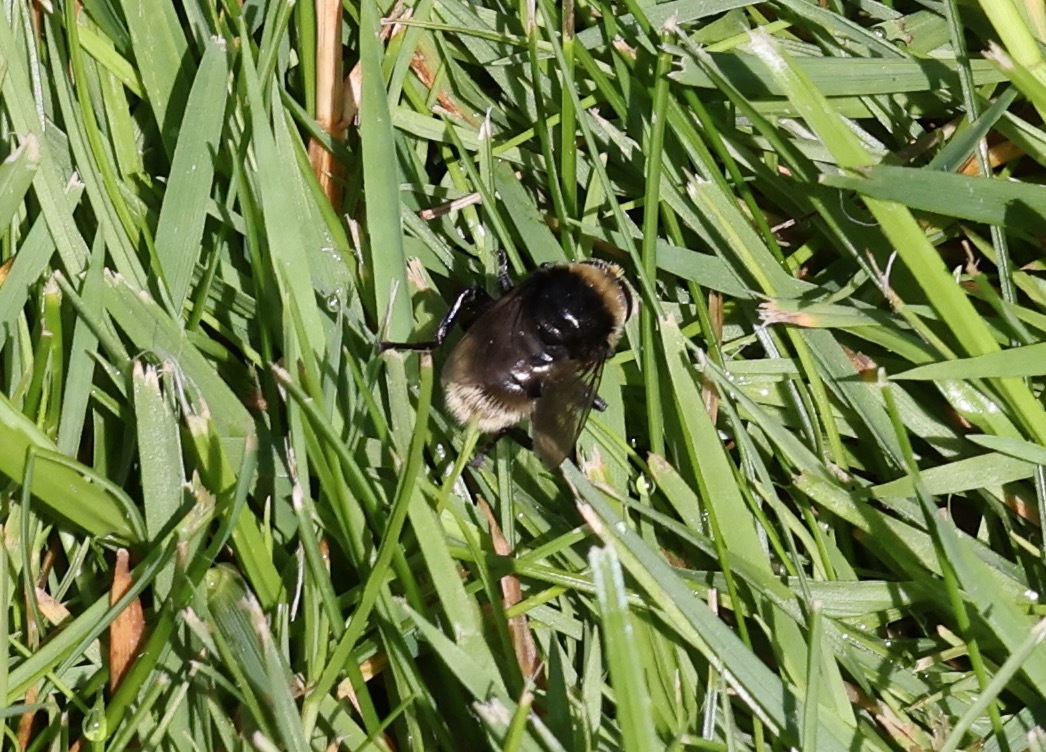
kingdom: Animalia
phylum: Arthropoda
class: Insecta
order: Diptera
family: Syrphidae
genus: Merodon
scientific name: Merodon equestris
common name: Greater bulb-fly
